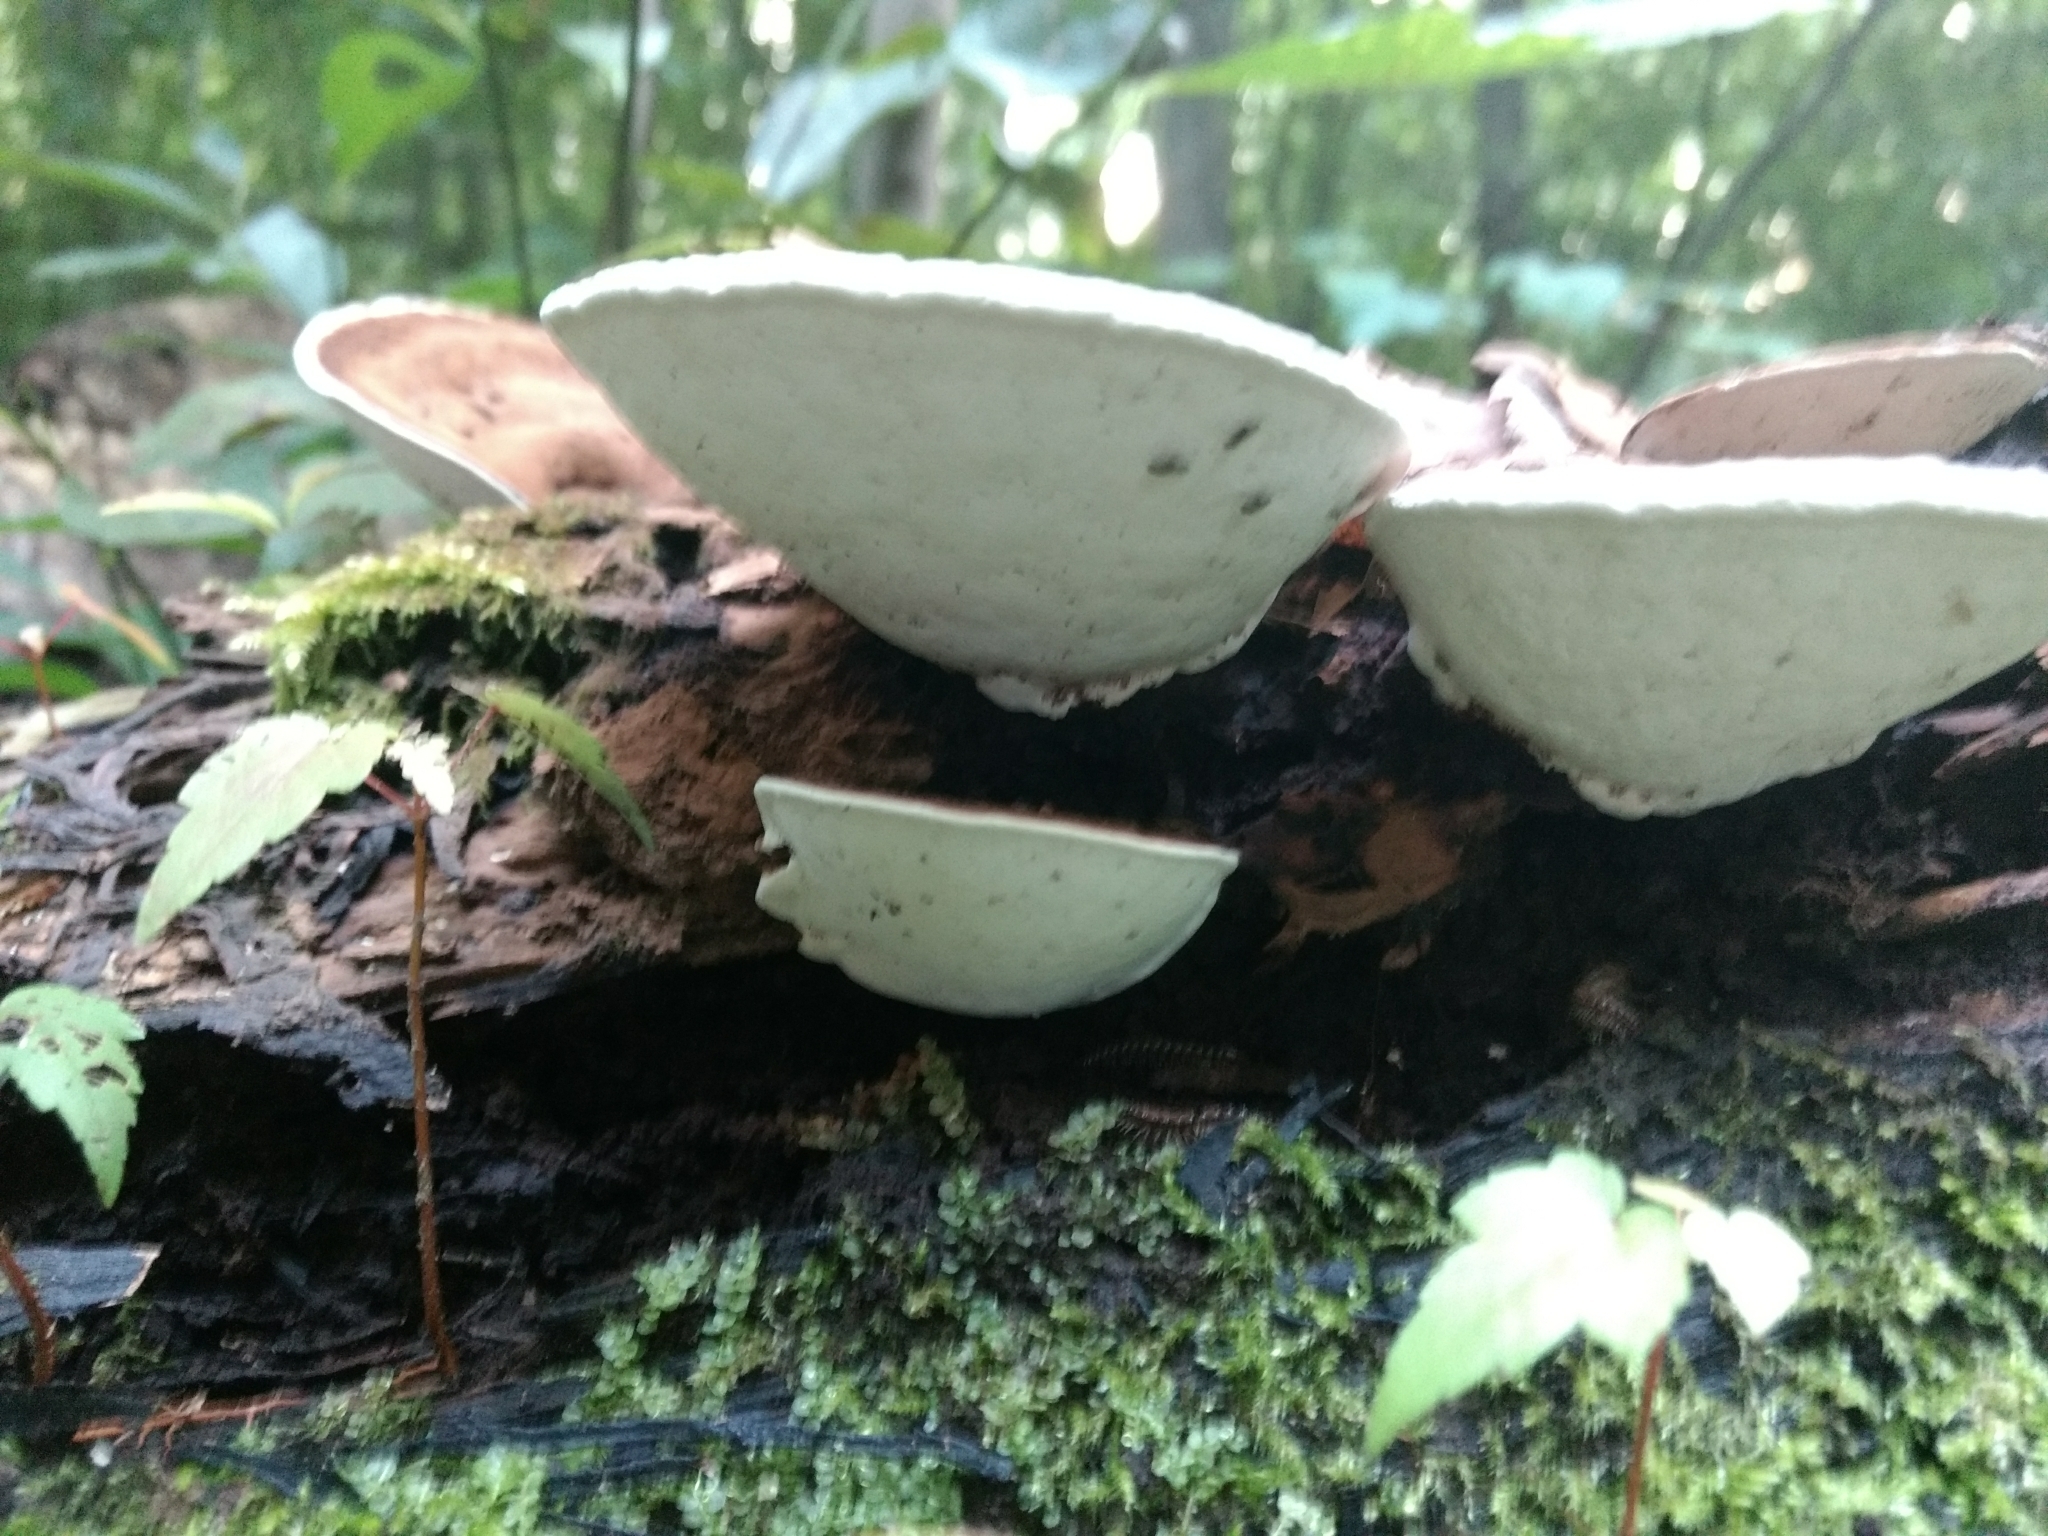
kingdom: Fungi
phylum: Basidiomycota
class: Agaricomycetes
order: Polyporales
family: Polyporaceae
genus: Ganoderma
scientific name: Ganoderma applanatum
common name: Artist's bracket
